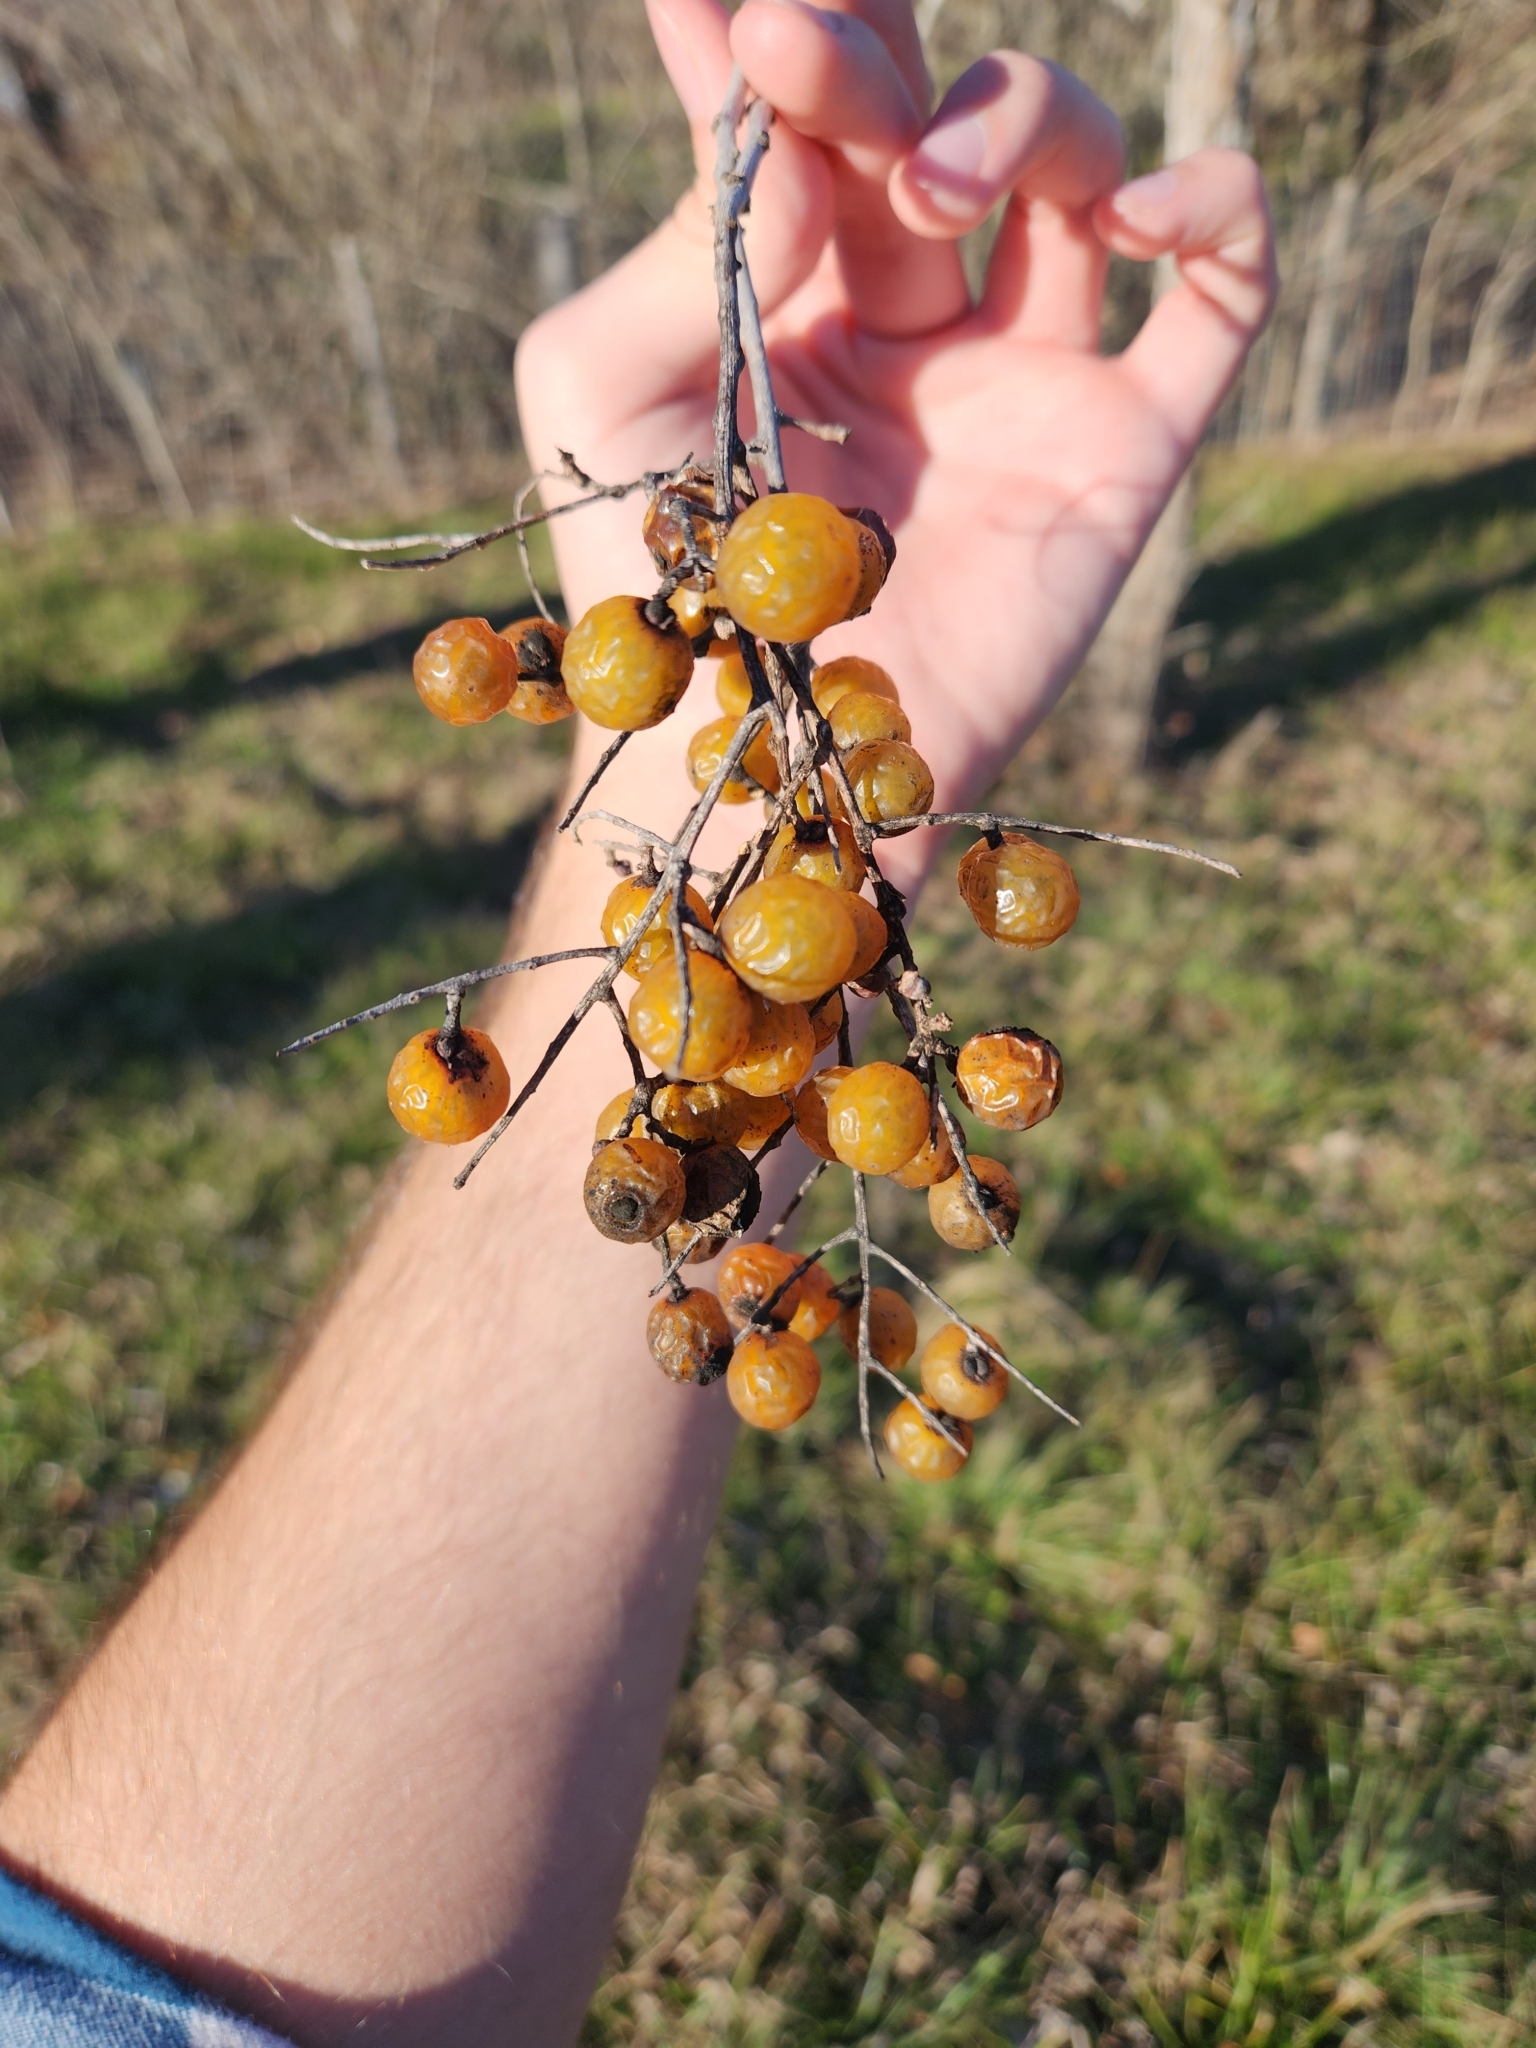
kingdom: Plantae
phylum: Tracheophyta
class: Magnoliopsida
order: Sapindales
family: Sapindaceae
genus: Sapindus
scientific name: Sapindus drummondii
